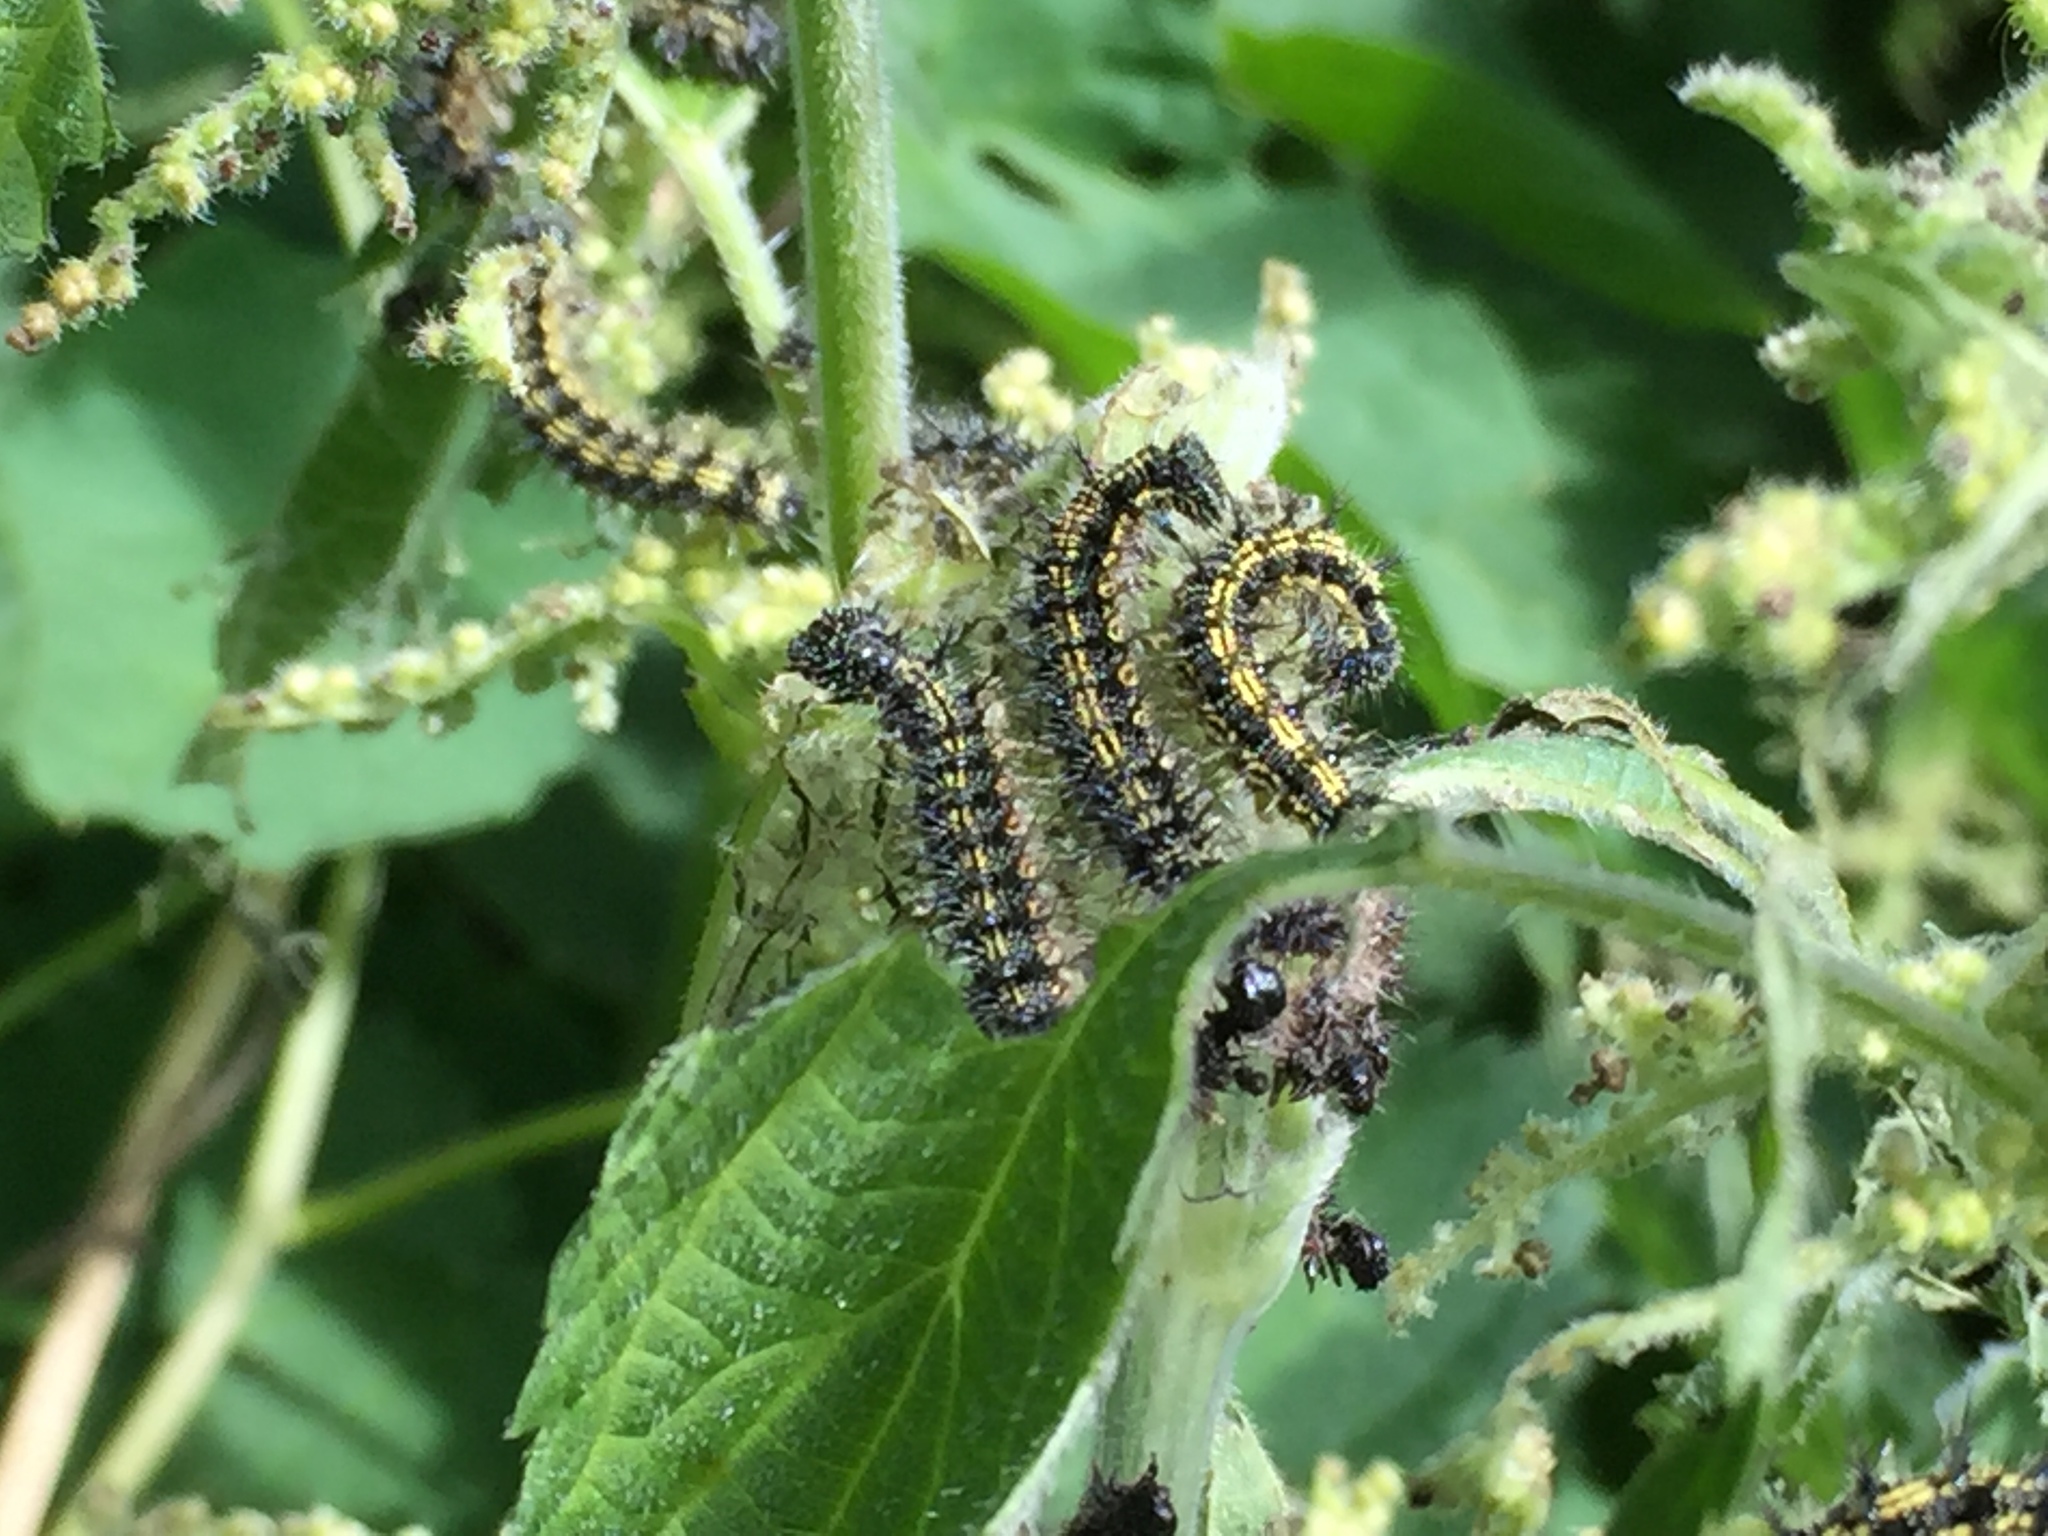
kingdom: Animalia
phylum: Arthropoda
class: Insecta
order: Lepidoptera
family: Nymphalidae
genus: Aglais
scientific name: Aglais urticae
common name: Small tortoiseshell
